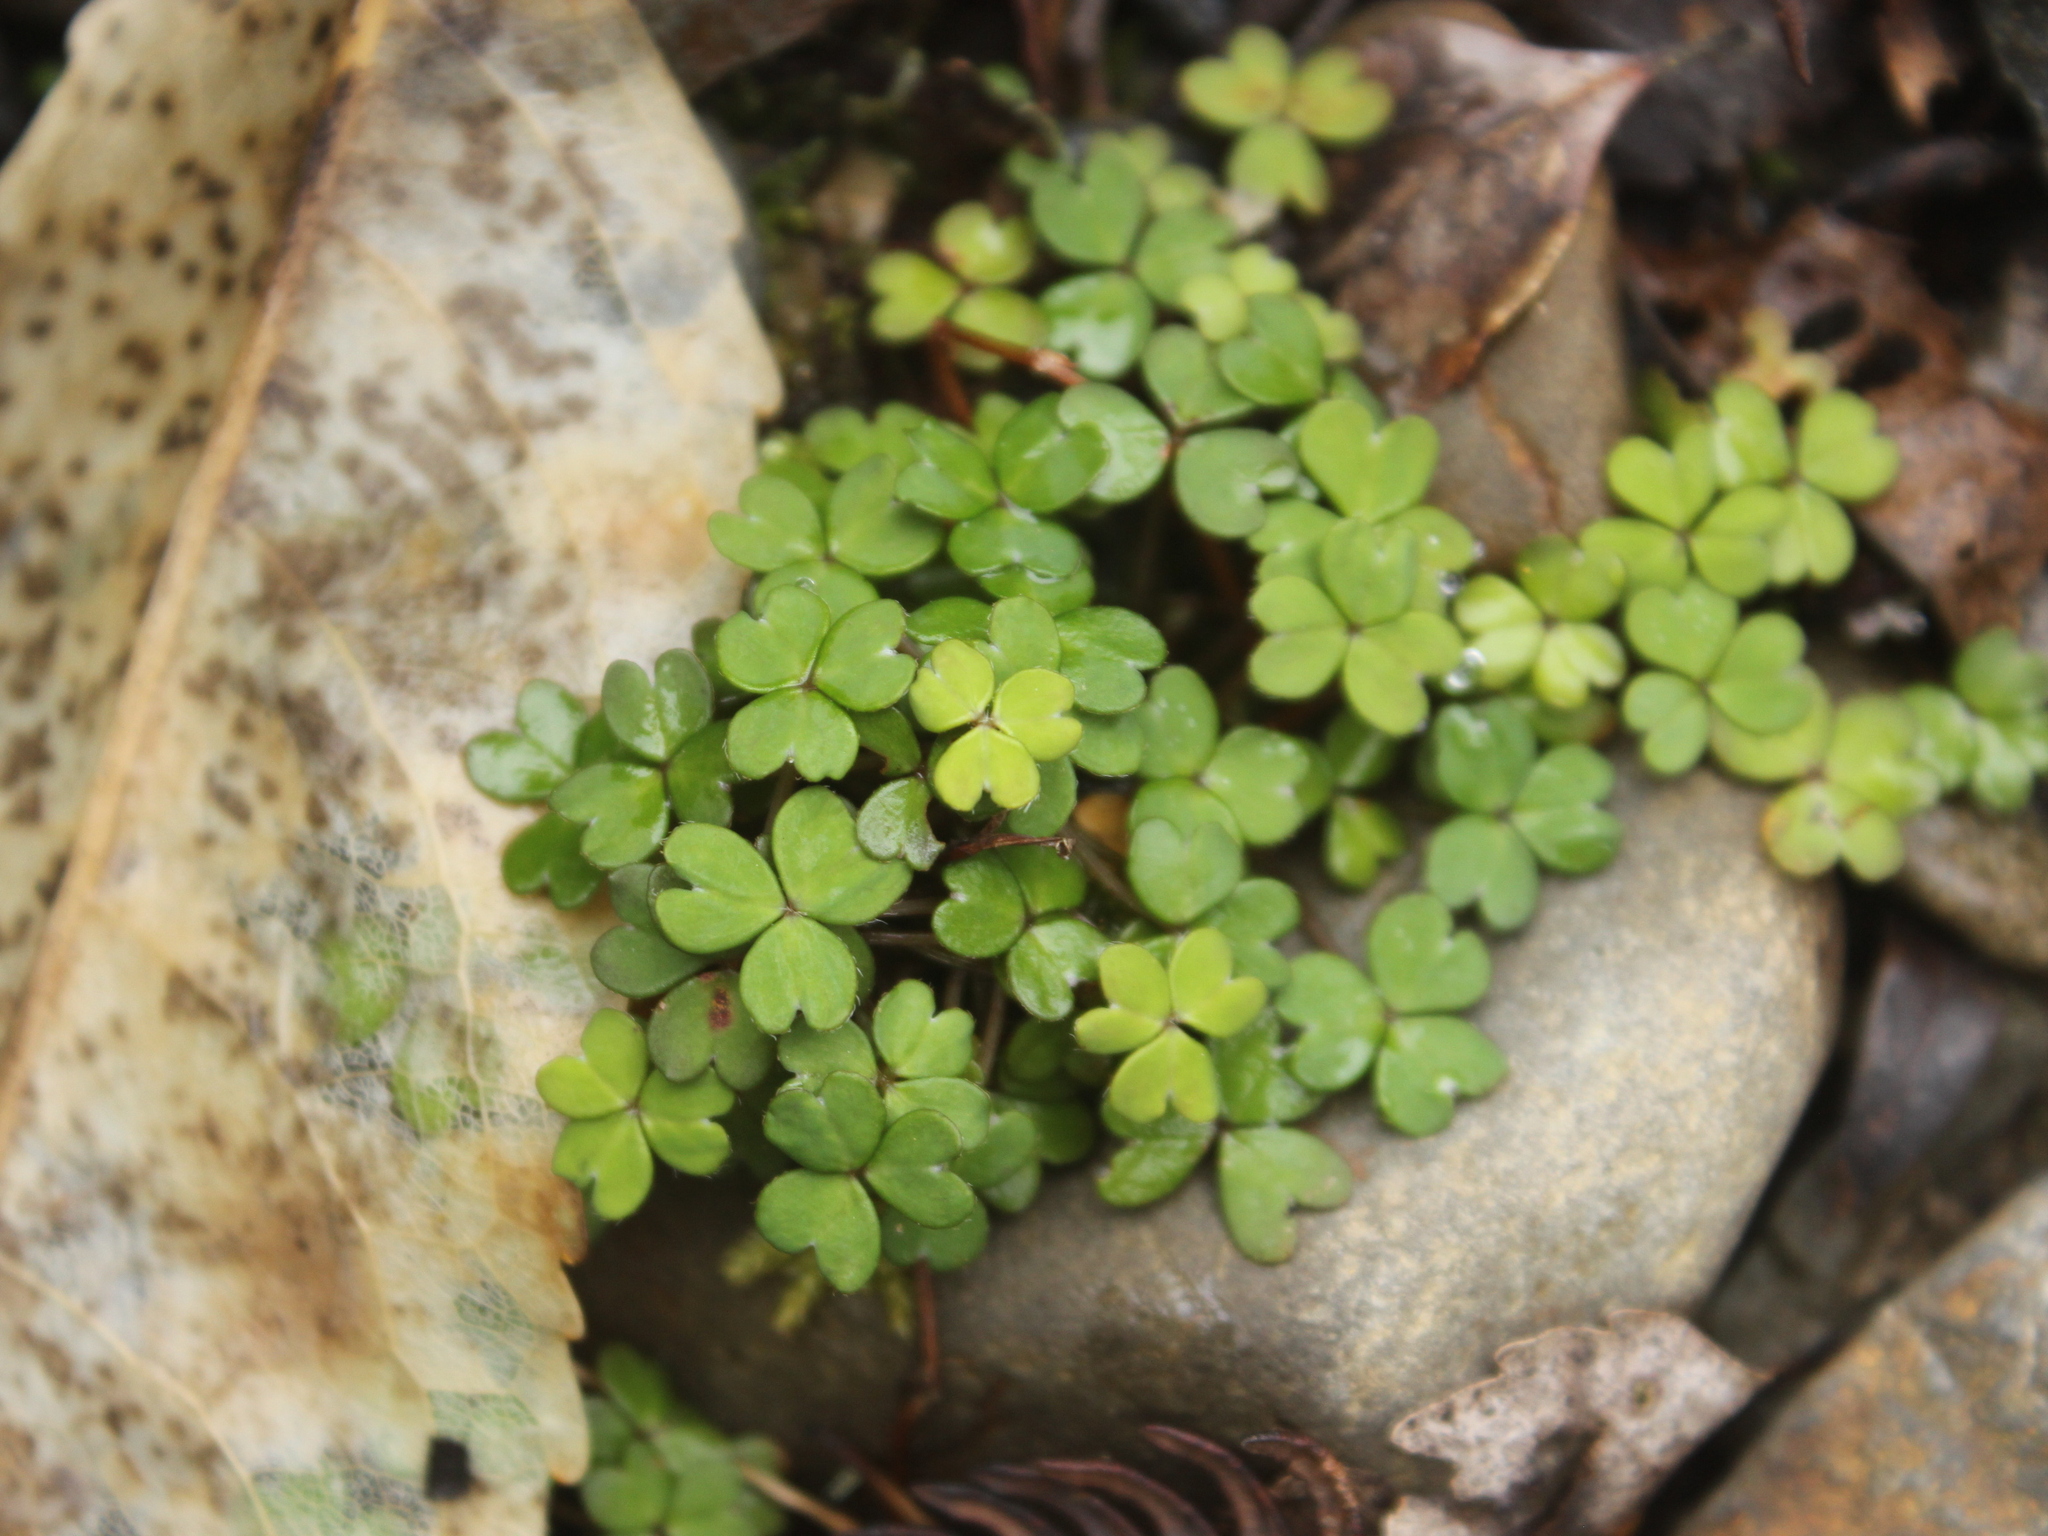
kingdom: Plantae
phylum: Tracheophyta
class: Magnoliopsida
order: Oxalidales
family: Oxalidaceae
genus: Oxalis
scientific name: Oxalis magellanica
